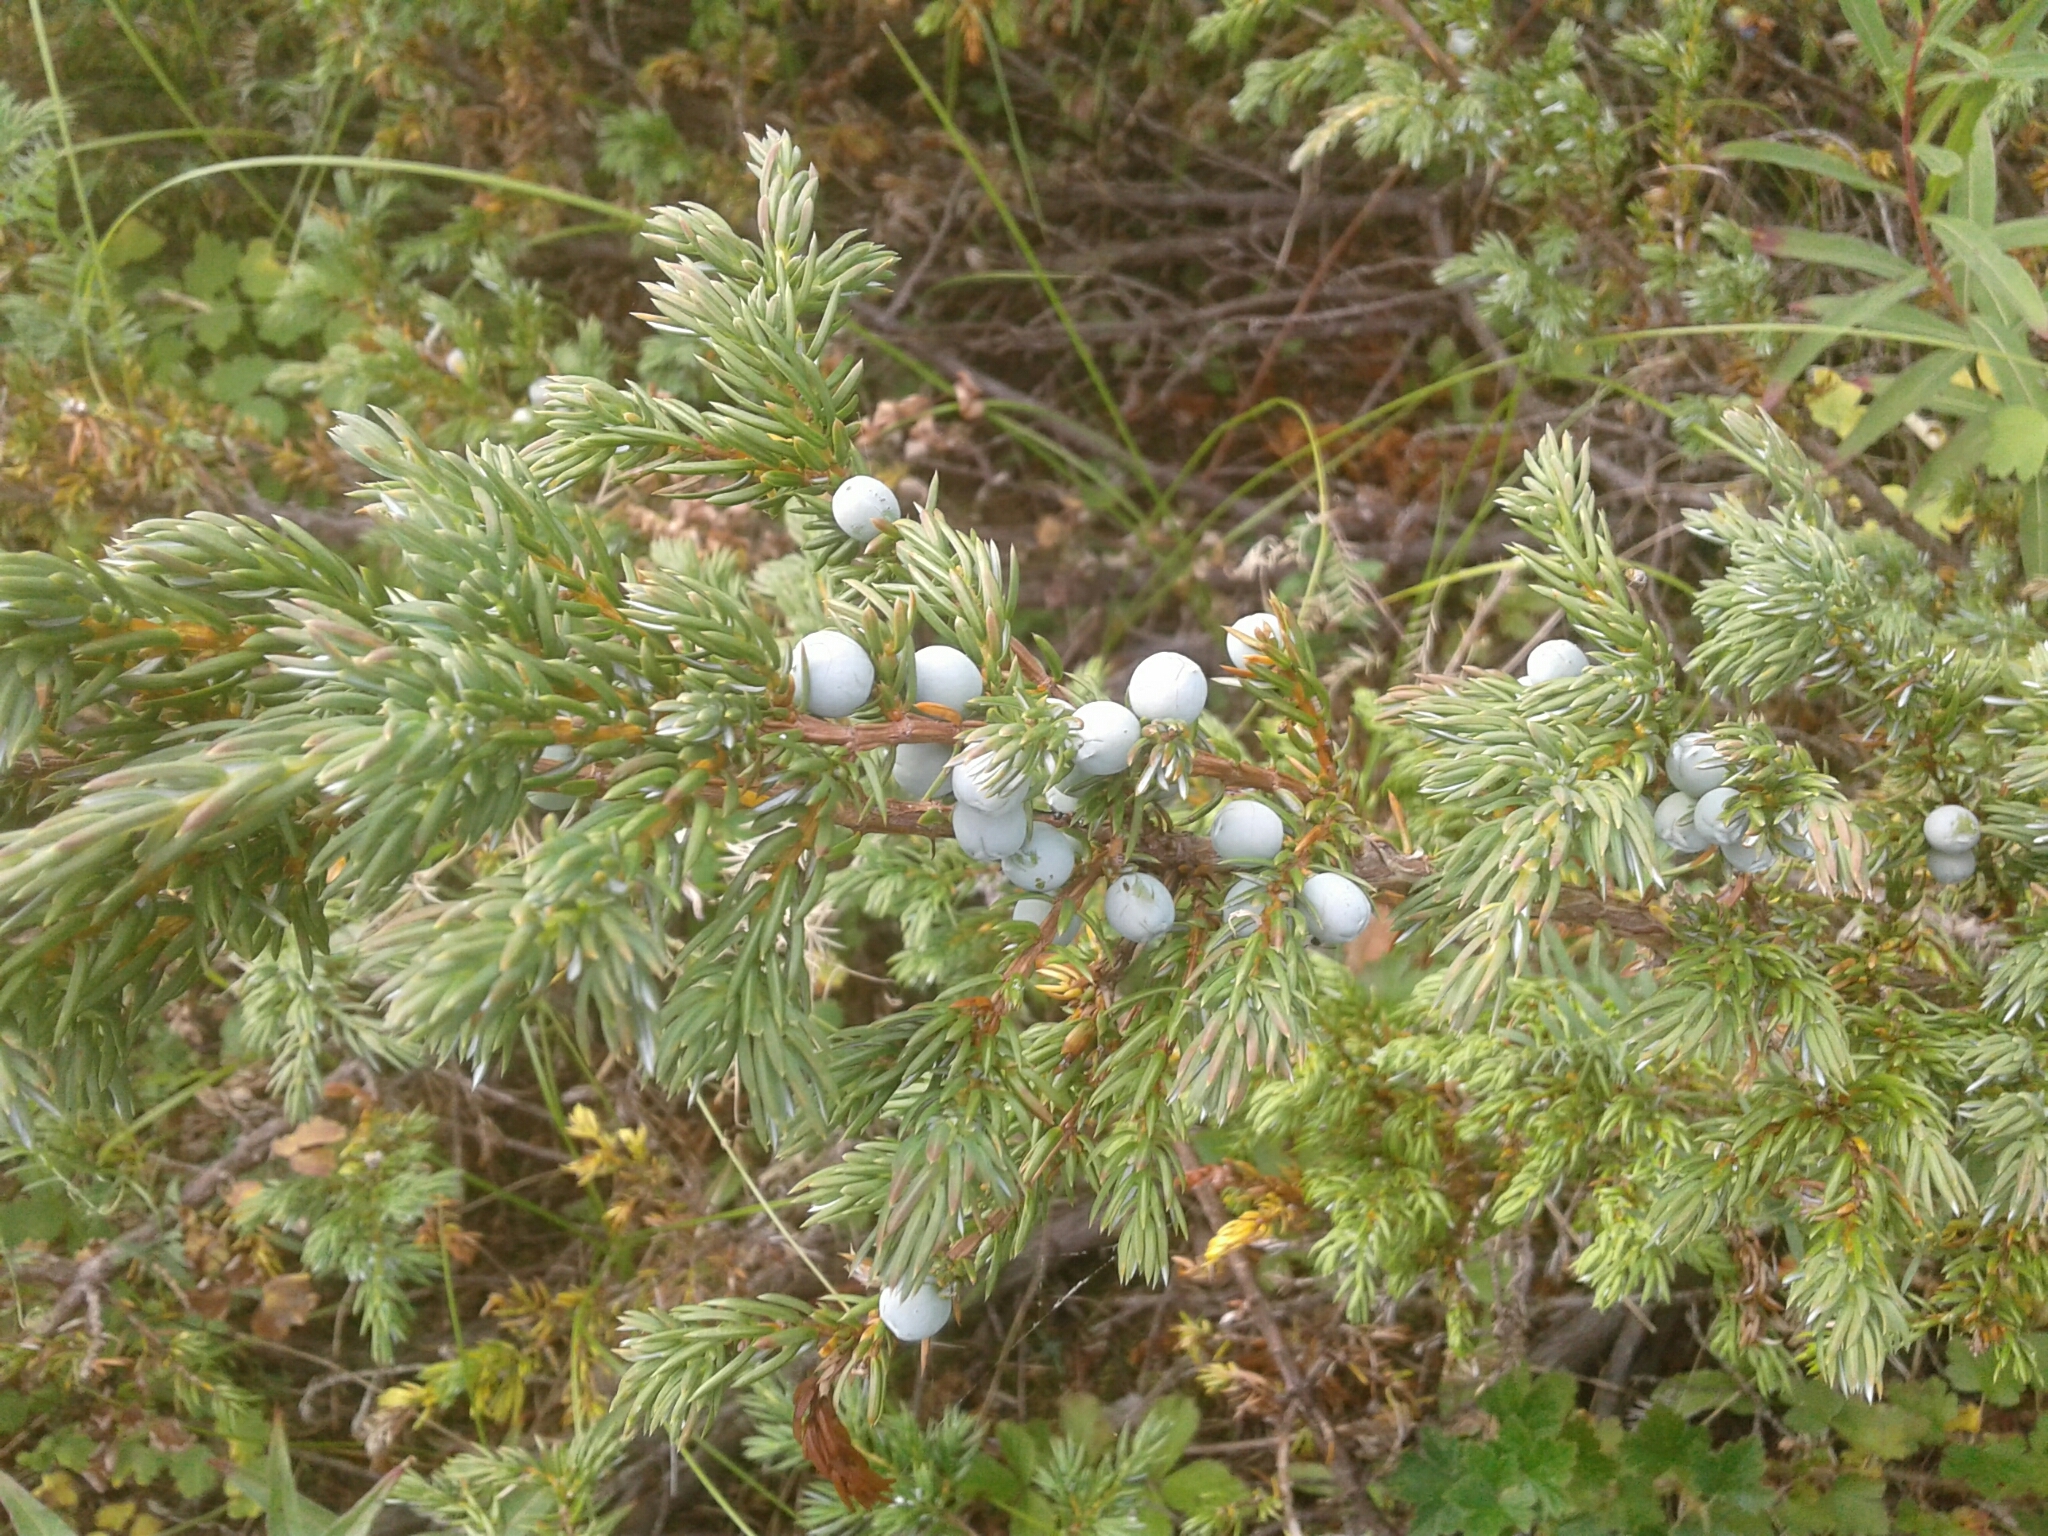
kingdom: Plantae
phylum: Tracheophyta
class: Pinopsida
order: Pinales
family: Cupressaceae
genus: Juniperus
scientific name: Juniperus communis
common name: Common juniper
